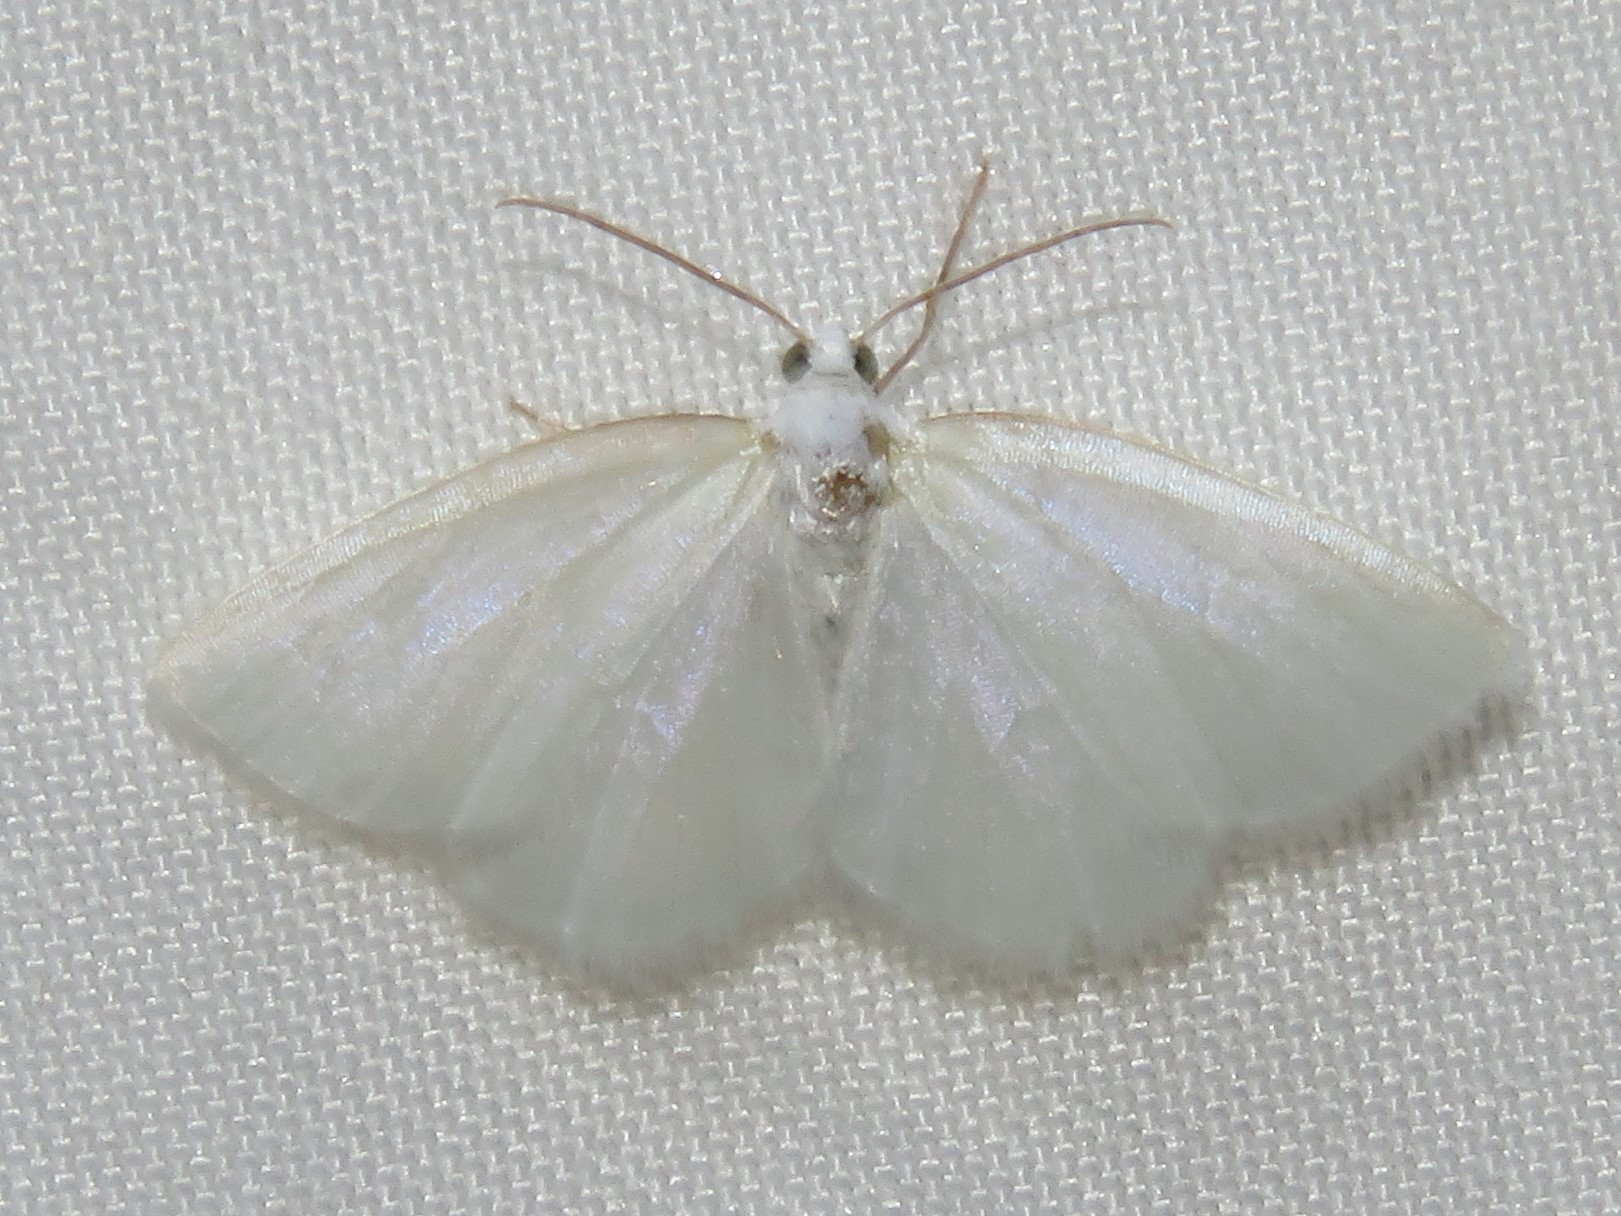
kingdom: Animalia
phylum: Arthropoda
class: Insecta
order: Lepidoptera
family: Geometridae
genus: Lomographa
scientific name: Lomographa vestaliata
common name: White spring moth
